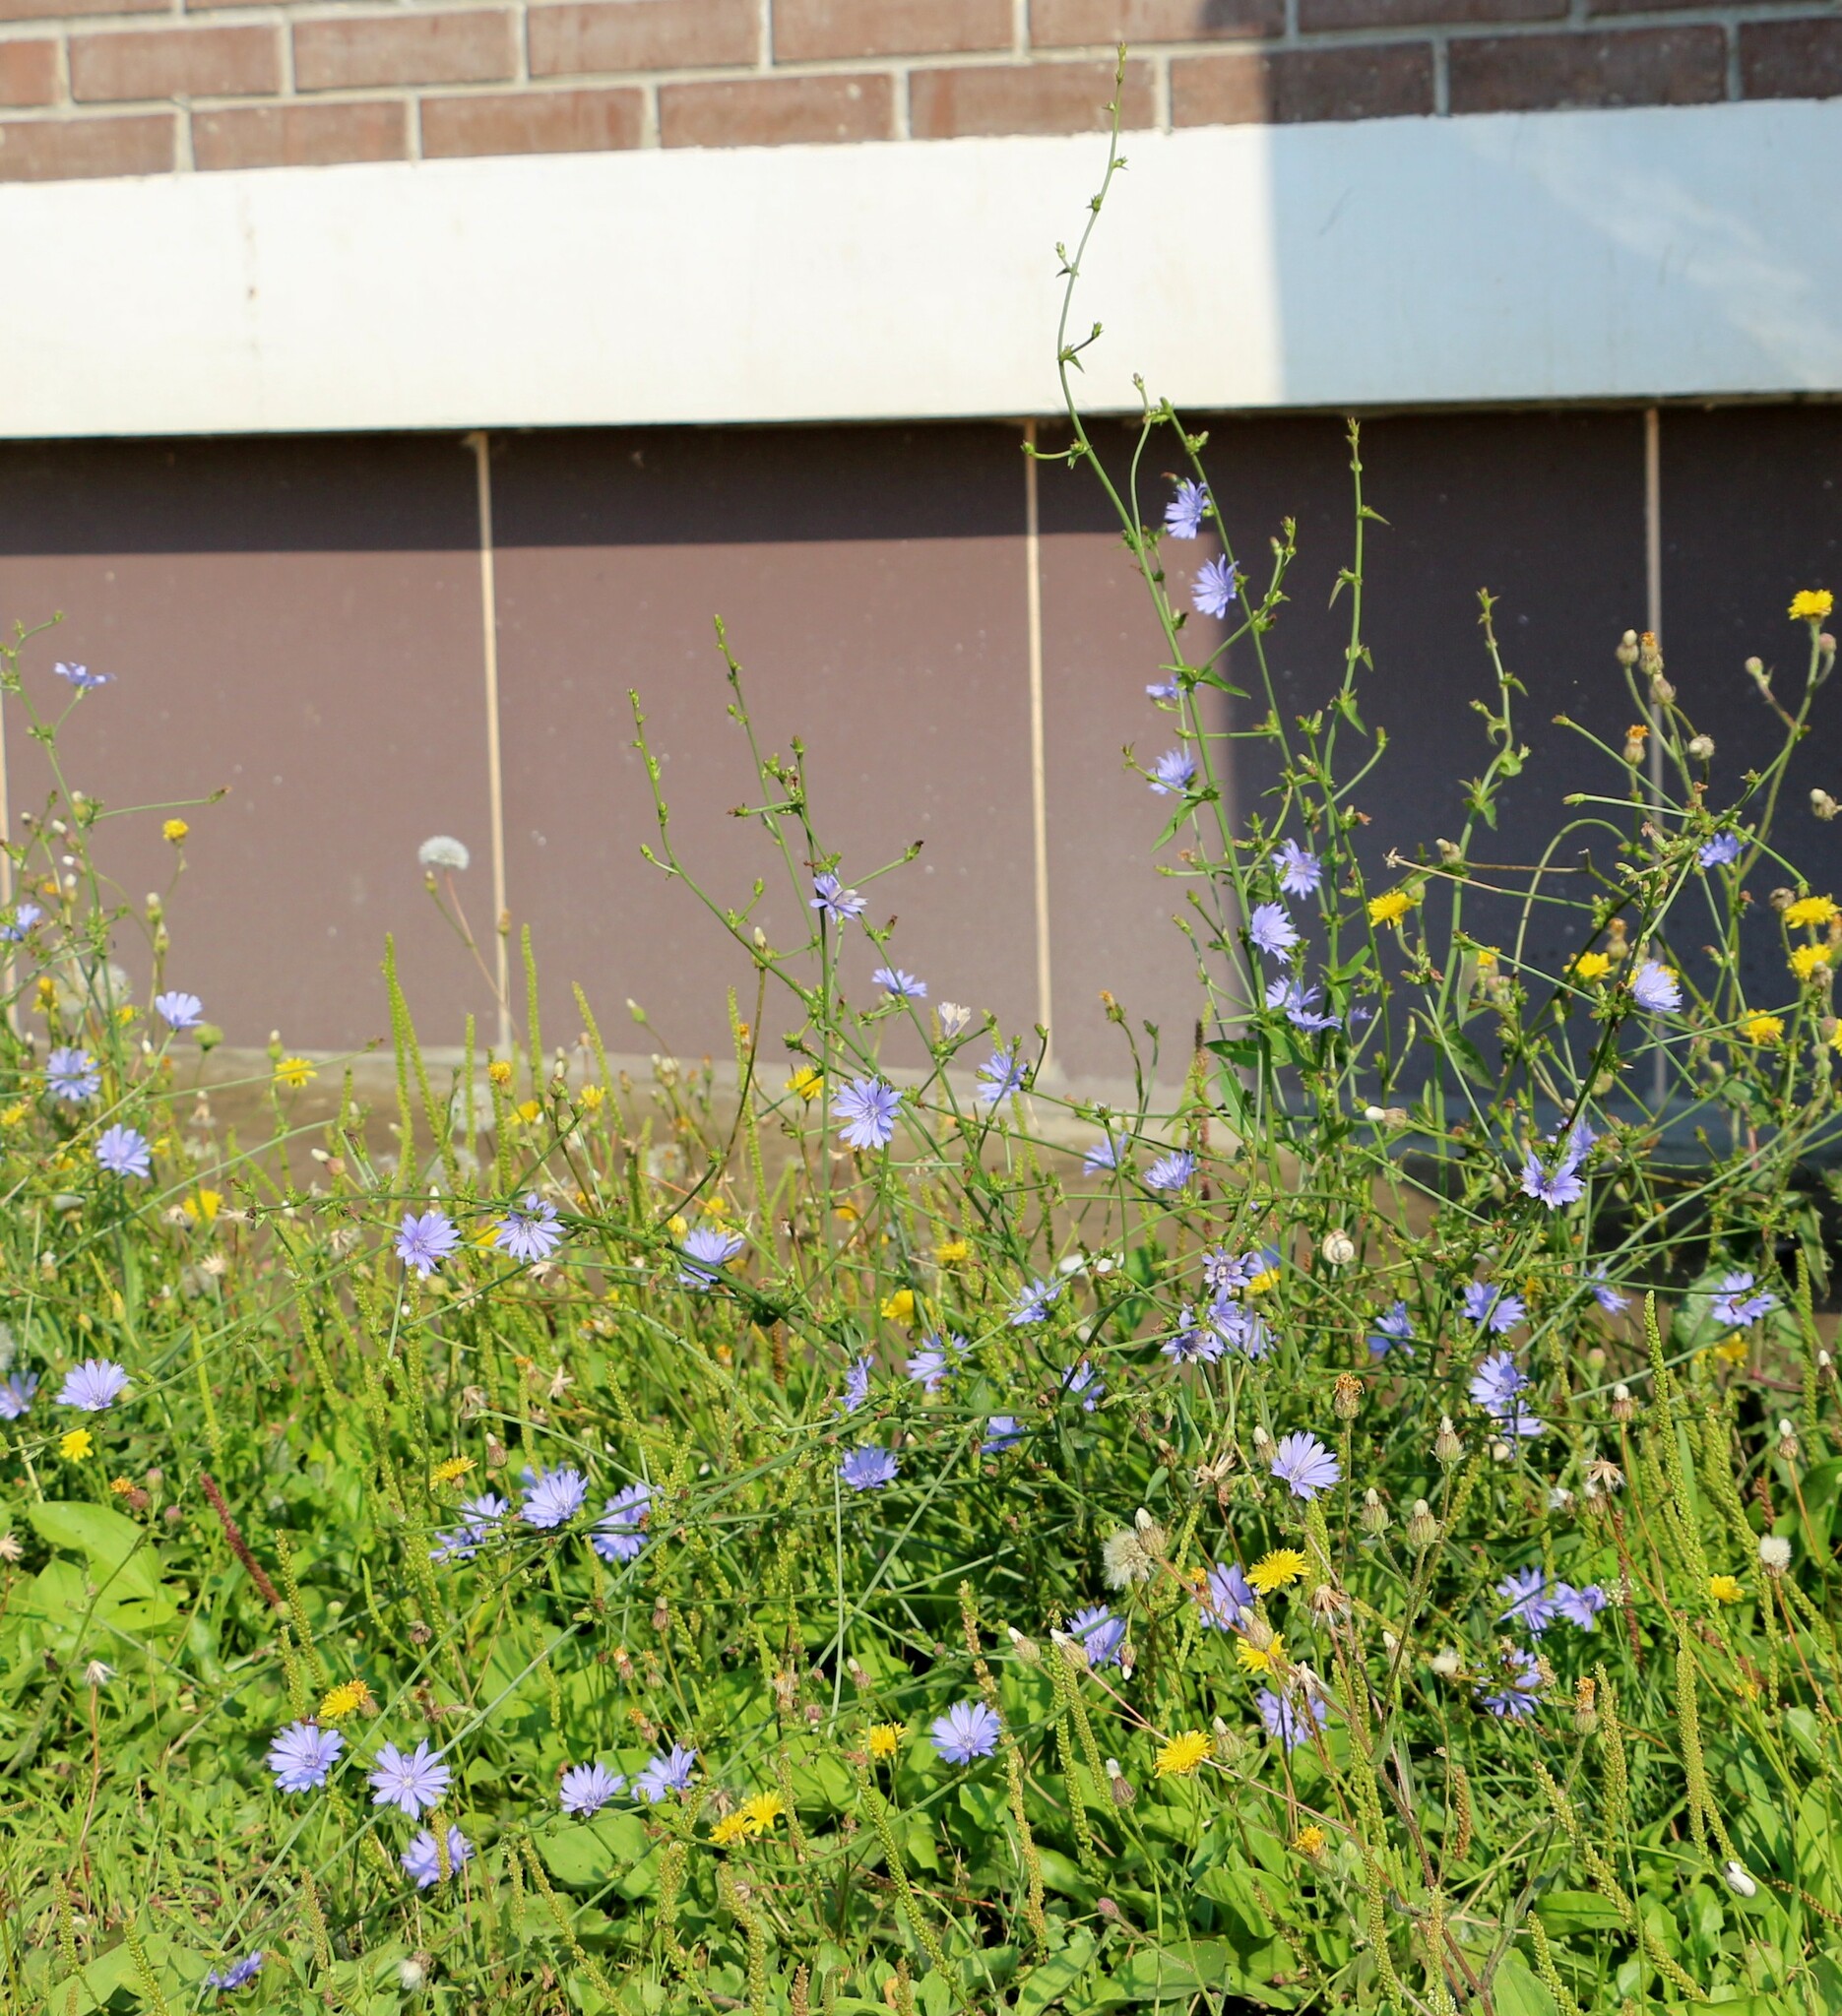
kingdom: Plantae
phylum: Tracheophyta
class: Magnoliopsida
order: Asterales
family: Asteraceae
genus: Cichorium
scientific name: Cichorium intybus
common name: Chicory
